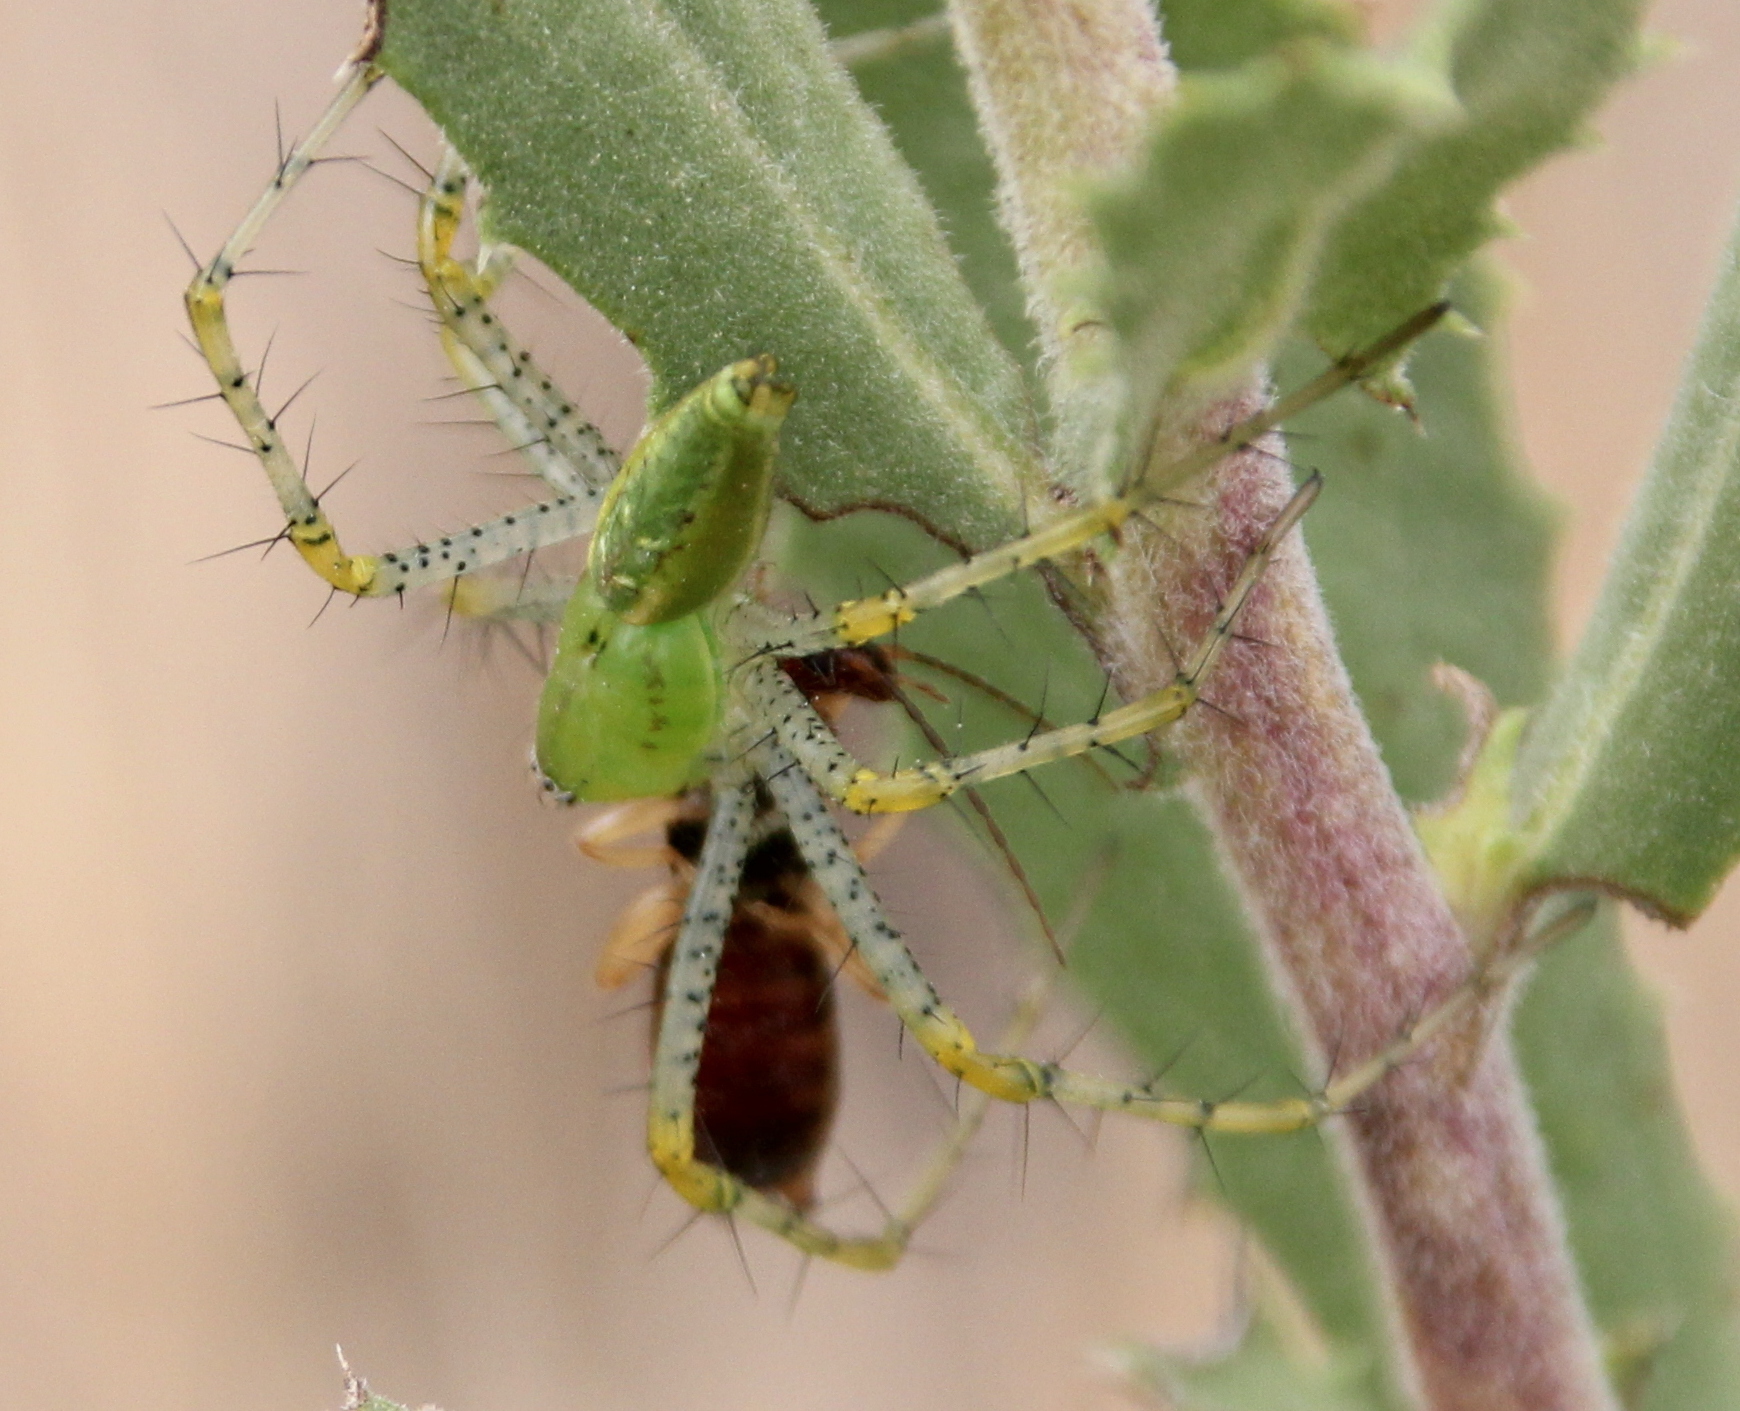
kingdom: Animalia
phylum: Arthropoda
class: Arachnida
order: Araneae
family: Oxyopidae
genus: Peucetia
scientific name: Peucetia viridans
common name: Lynx spiders
